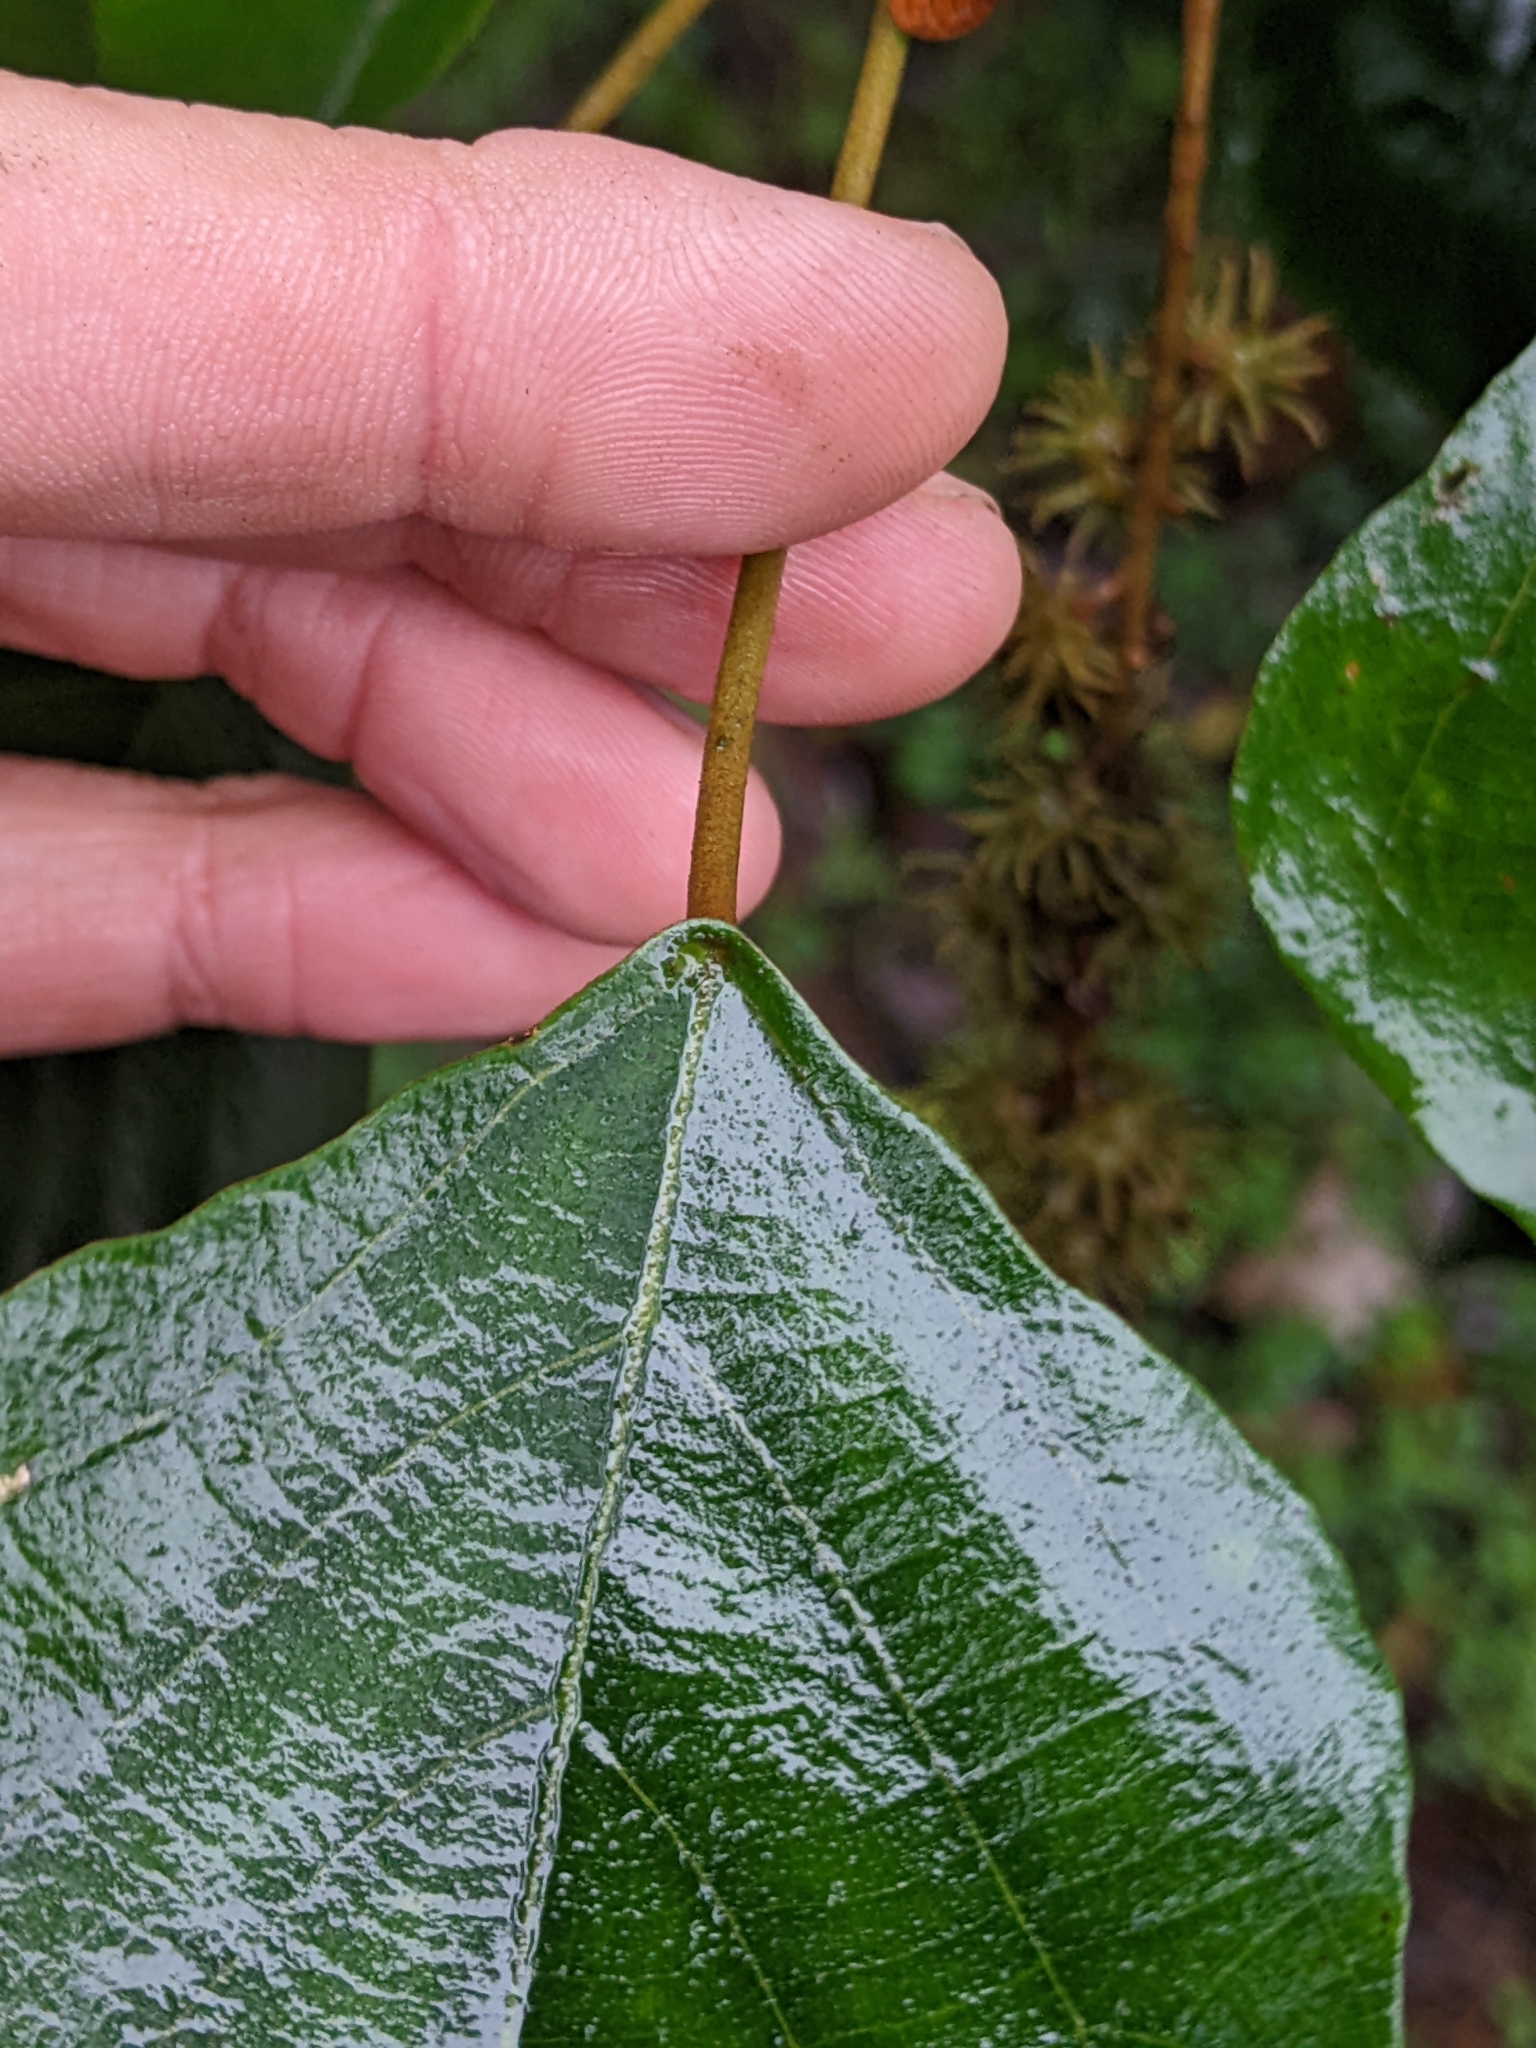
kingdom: Plantae
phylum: Tracheophyta
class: Magnoliopsida
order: Malpighiales
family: Euphorbiaceae
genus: Mallotus
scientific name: Mallotus paniculatus
